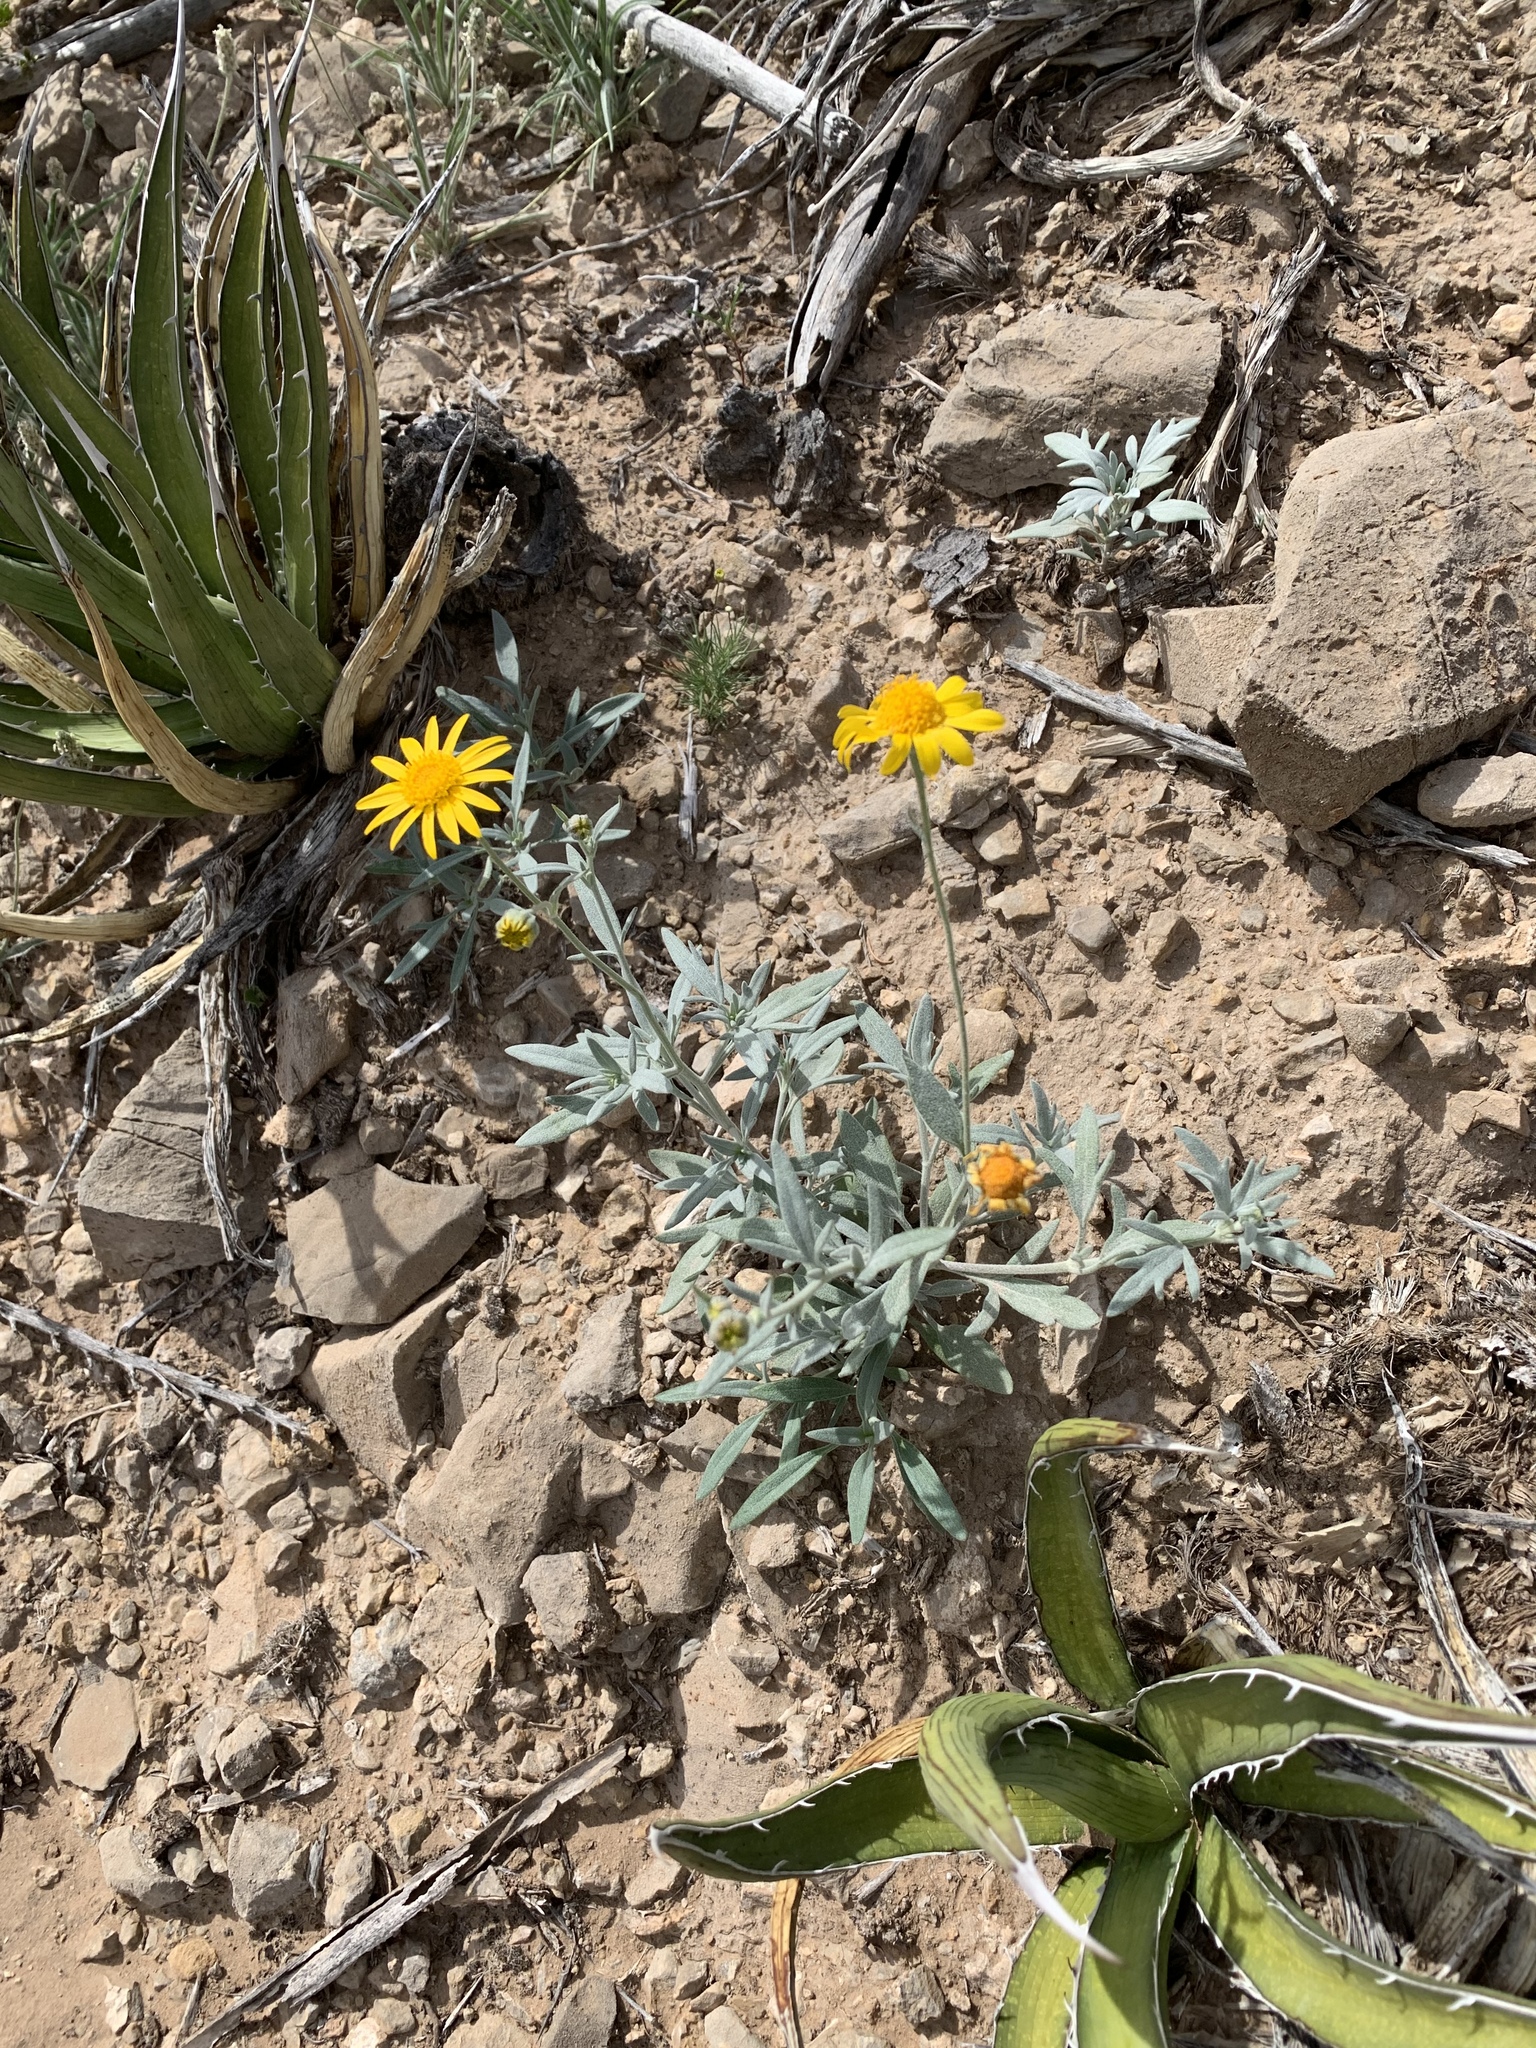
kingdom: Plantae
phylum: Tracheophyta
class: Magnoliopsida
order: Asterales
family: Asteraceae
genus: Picradeniopsis
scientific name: Picradeniopsis absinthifolia
